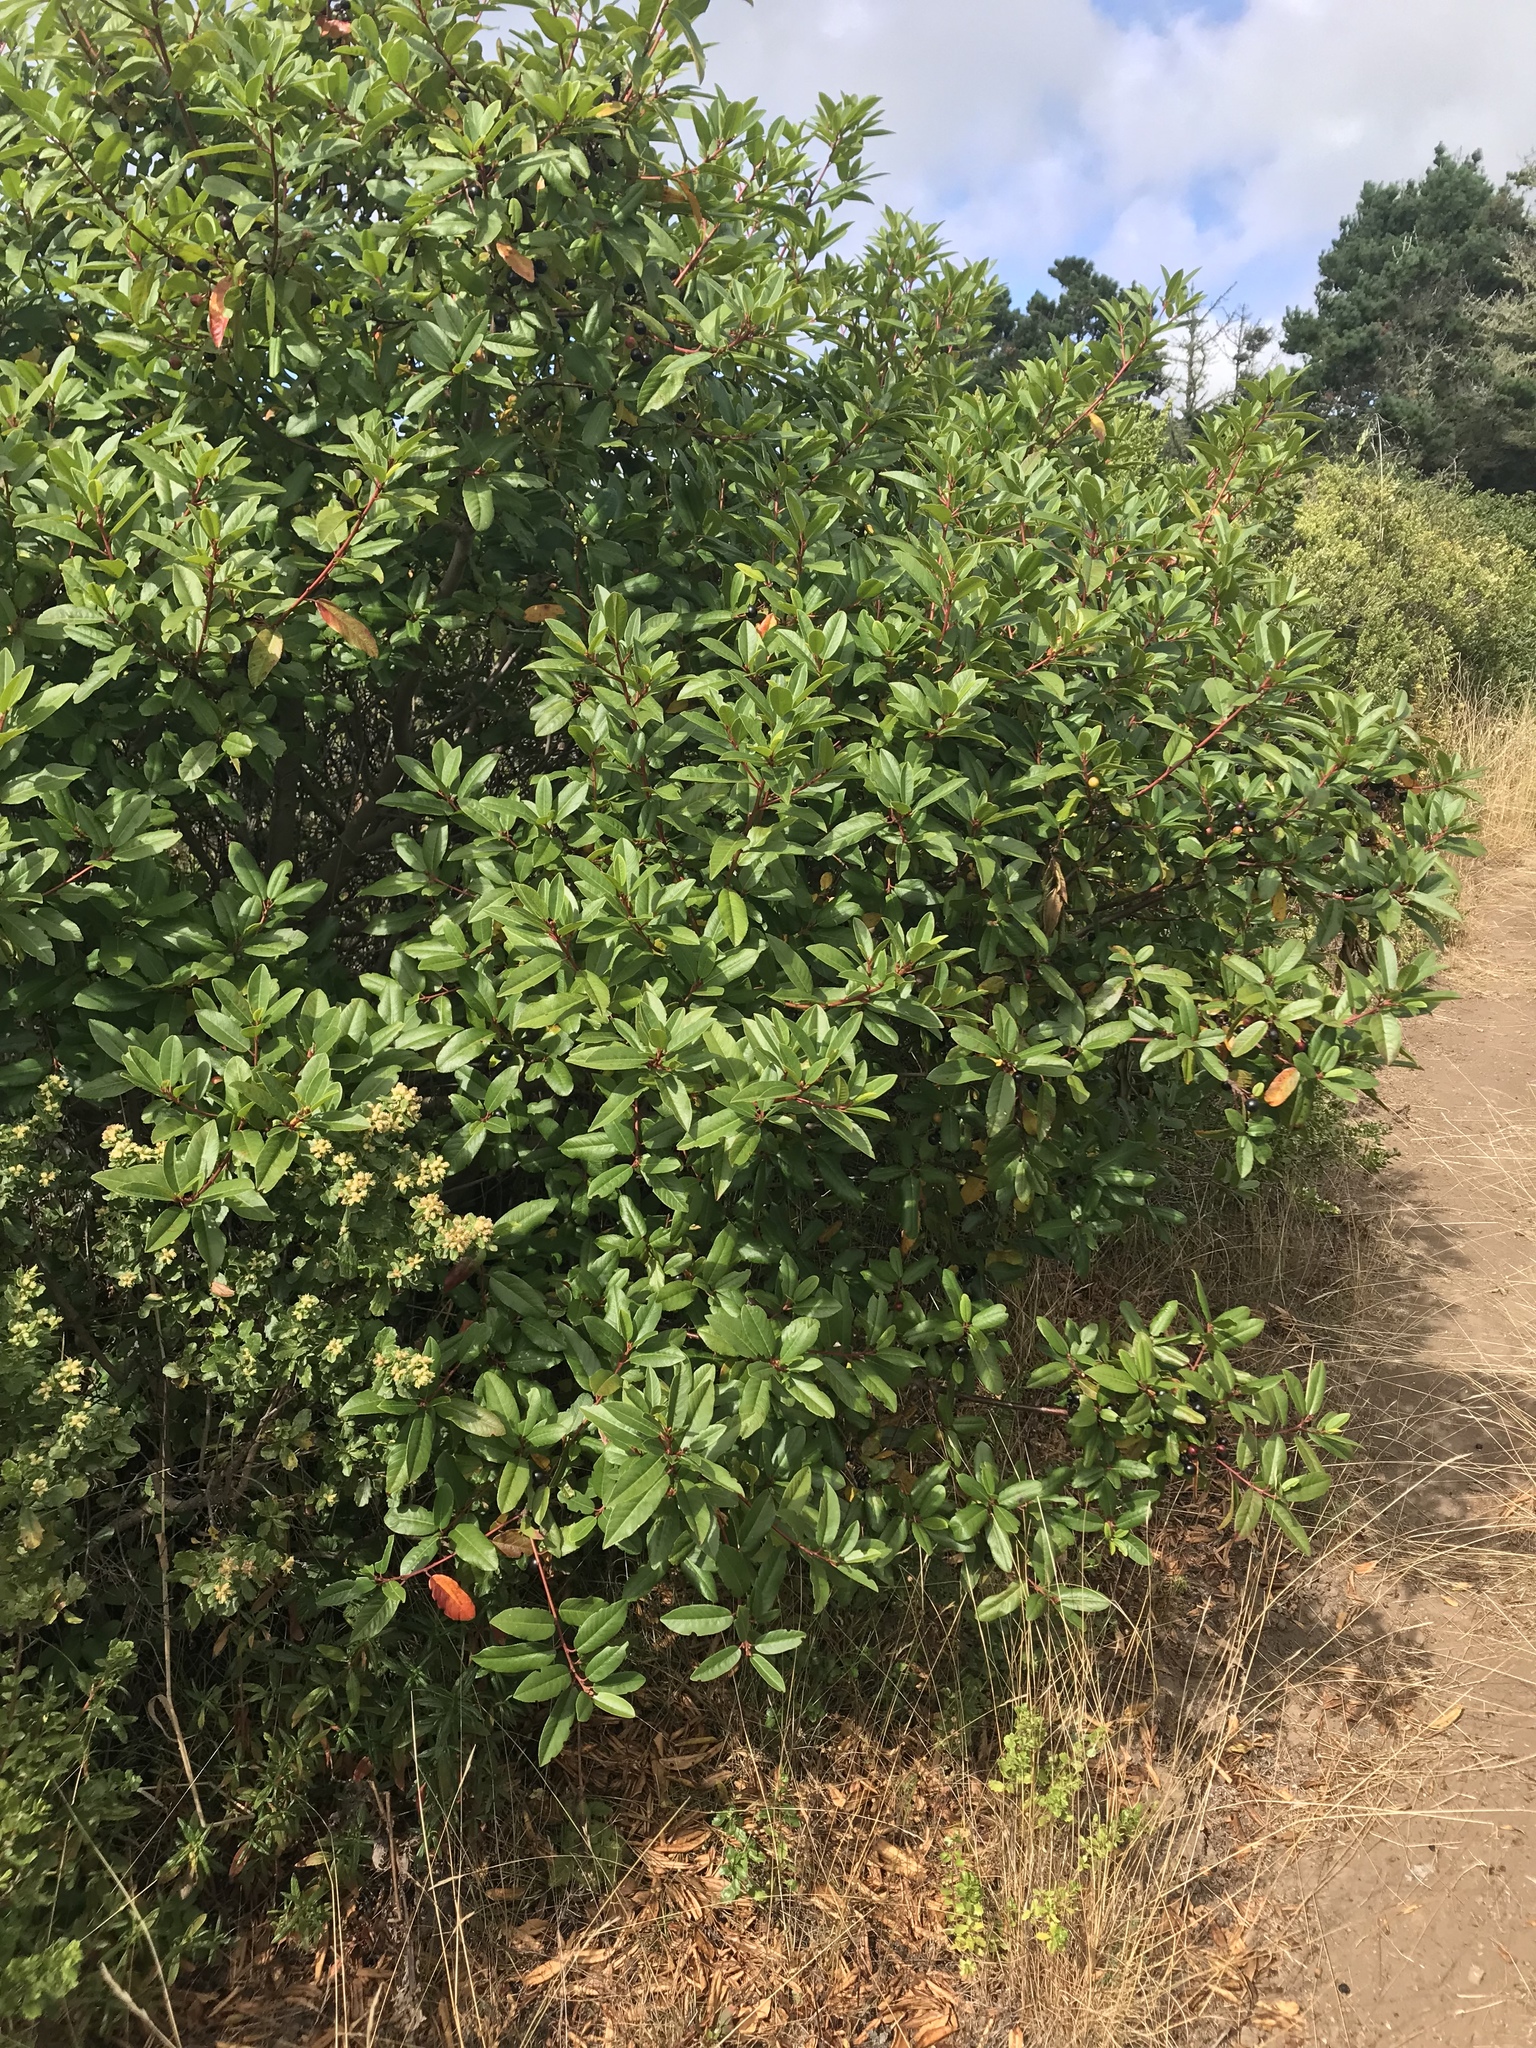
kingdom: Plantae
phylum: Tracheophyta
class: Magnoliopsida
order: Rosales
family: Rhamnaceae
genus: Frangula
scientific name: Frangula californica
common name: California buckthorn
